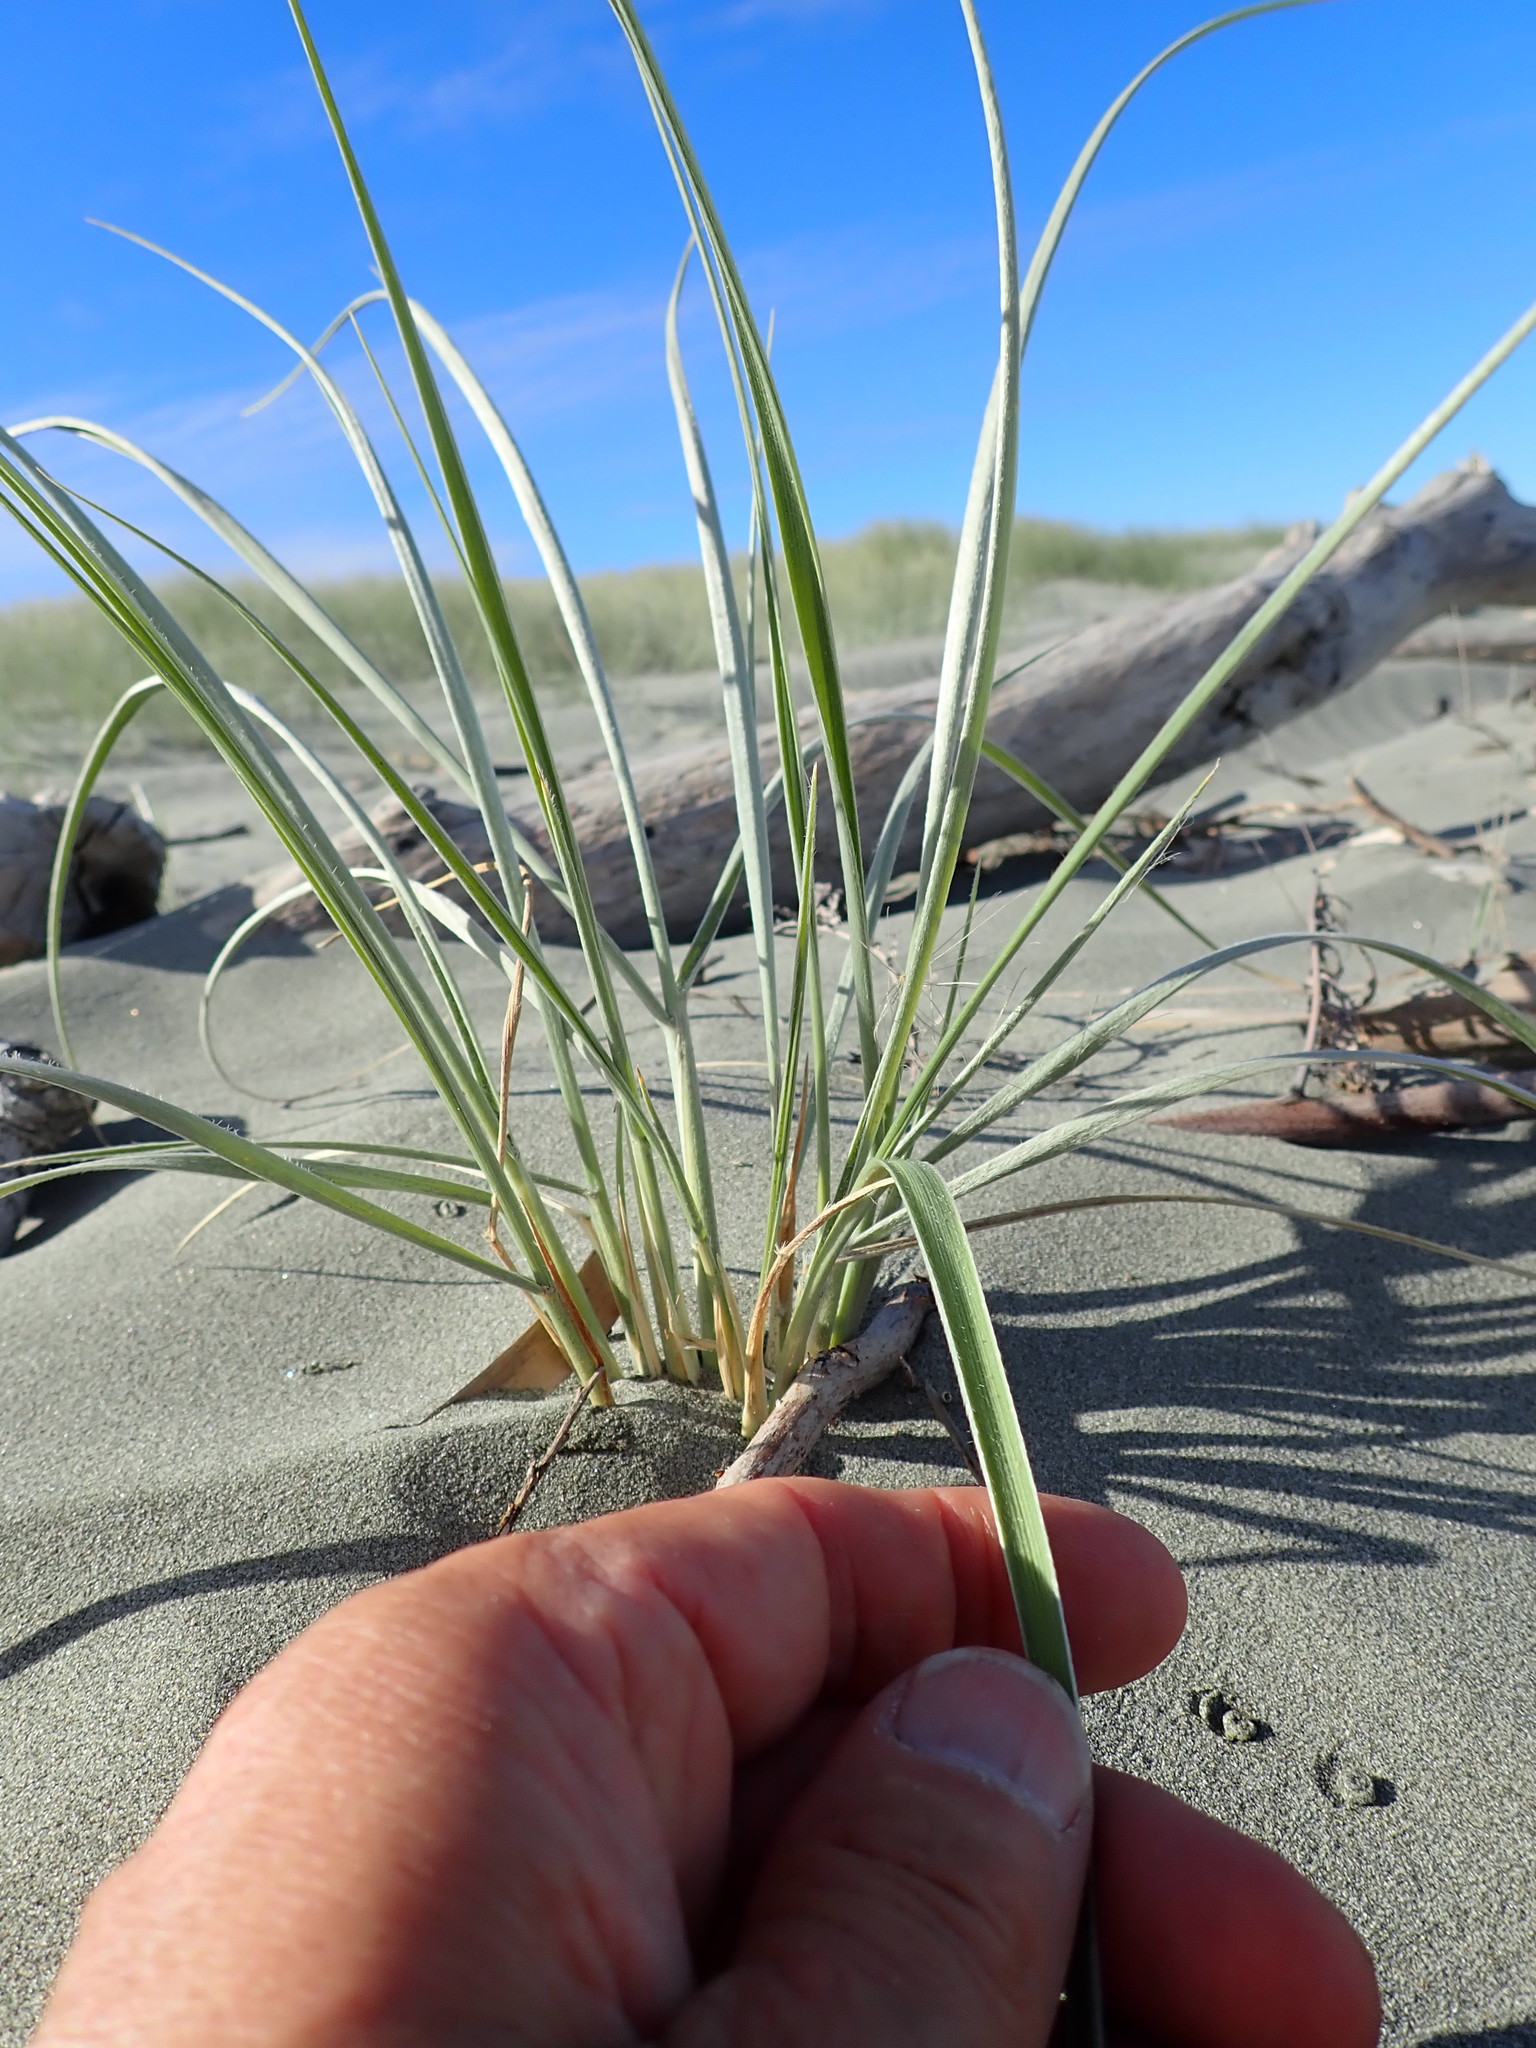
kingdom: Plantae
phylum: Tracheophyta
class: Liliopsida
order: Poales
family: Poaceae
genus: Spinifex
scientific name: Spinifex sericeus
